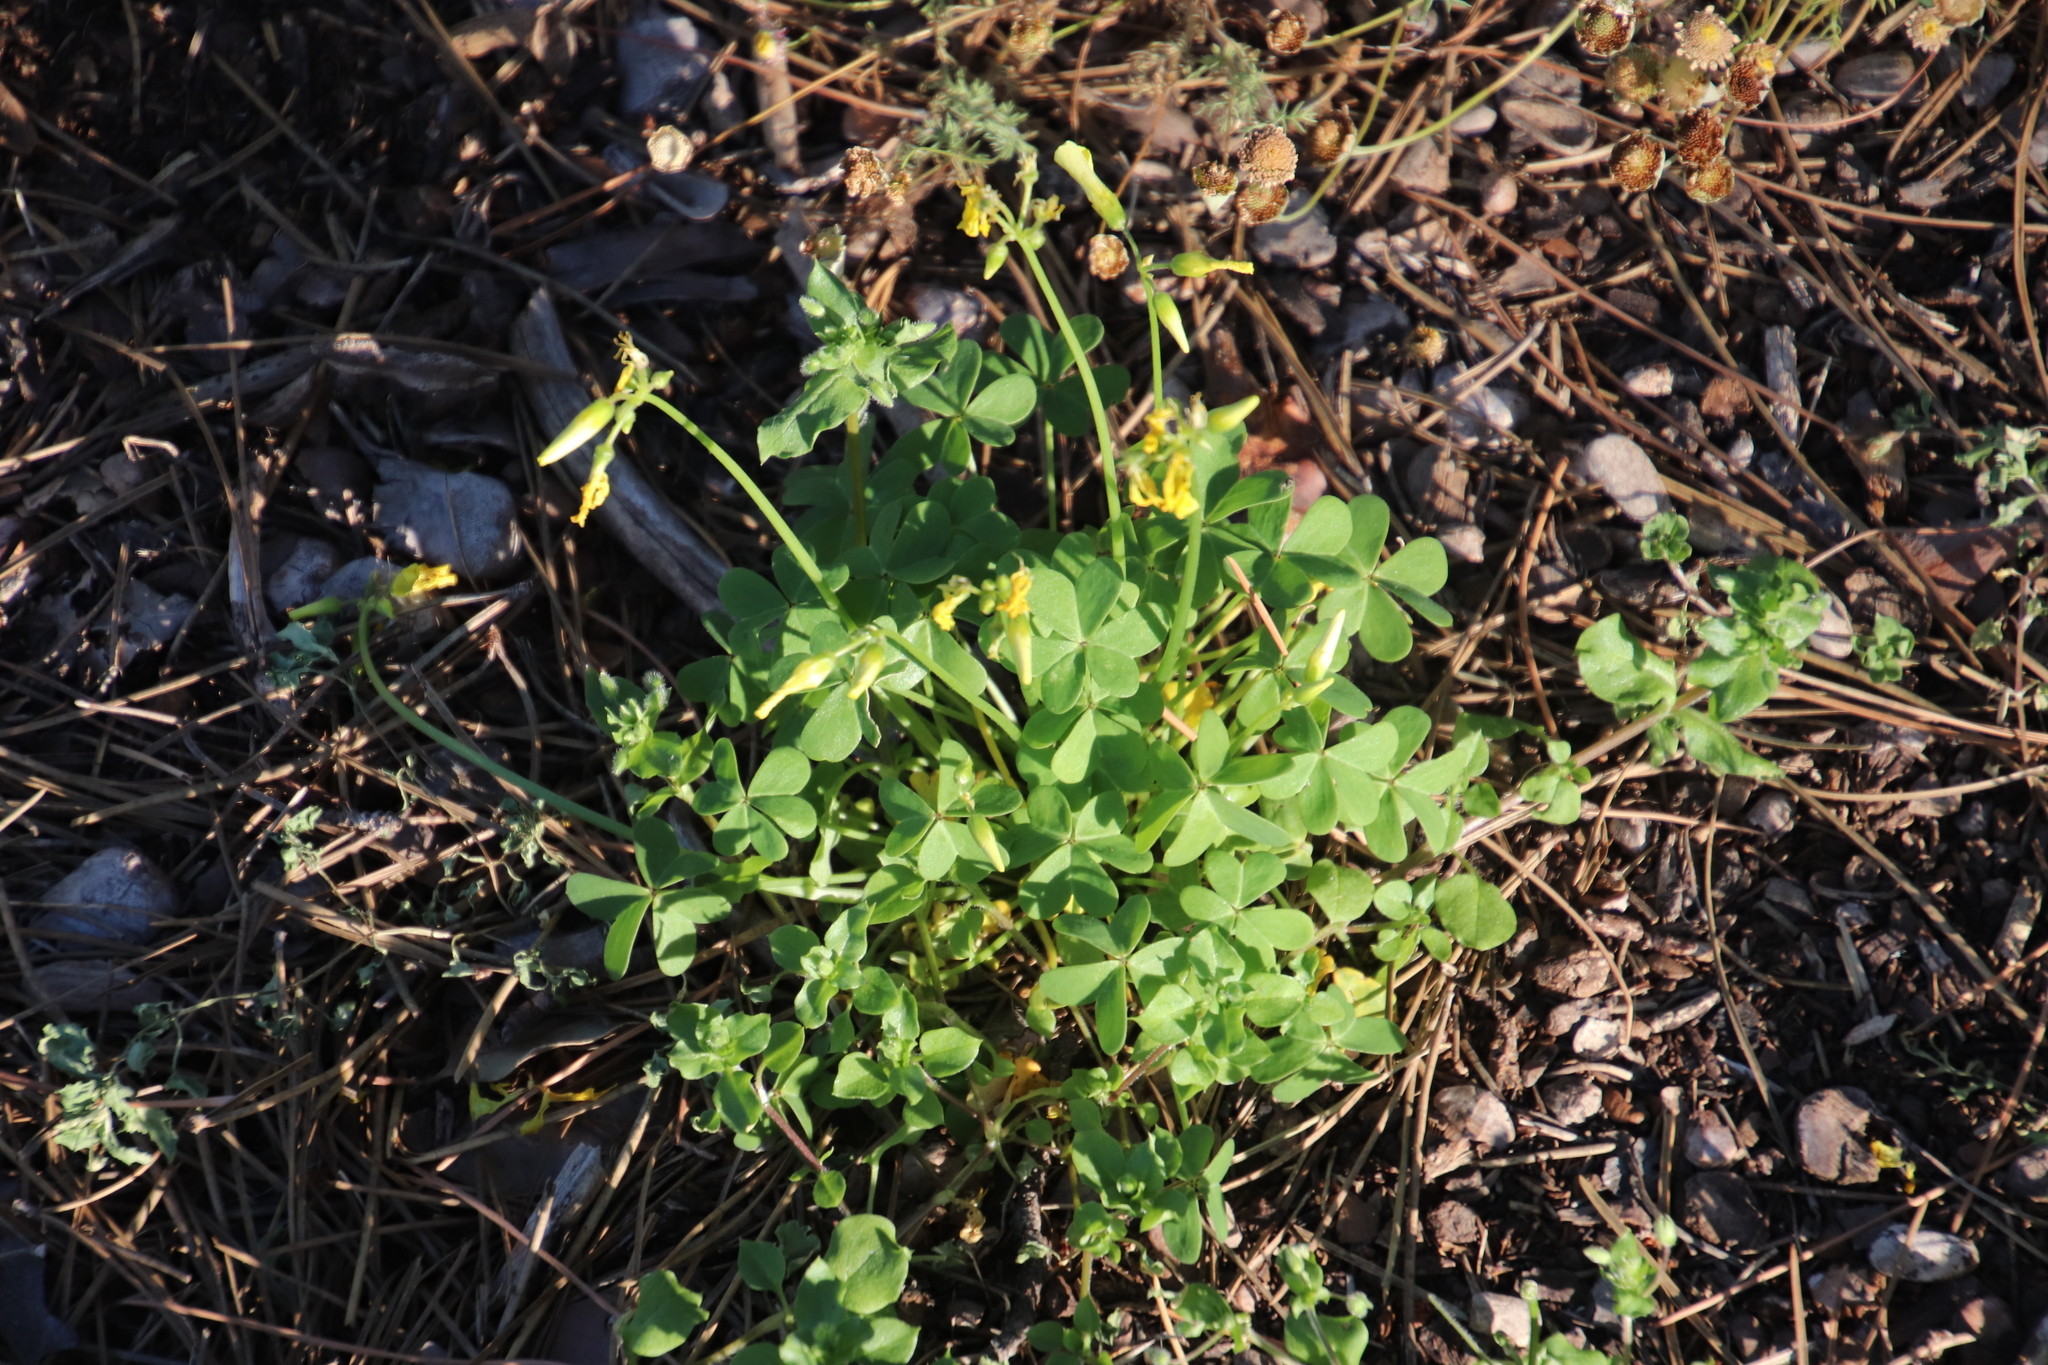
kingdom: Plantae
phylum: Tracheophyta
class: Magnoliopsida
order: Oxalidales
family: Oxalidaceae
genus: Oxalis
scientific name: Oxalis pes-caprae
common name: Bermuda-buttercup
